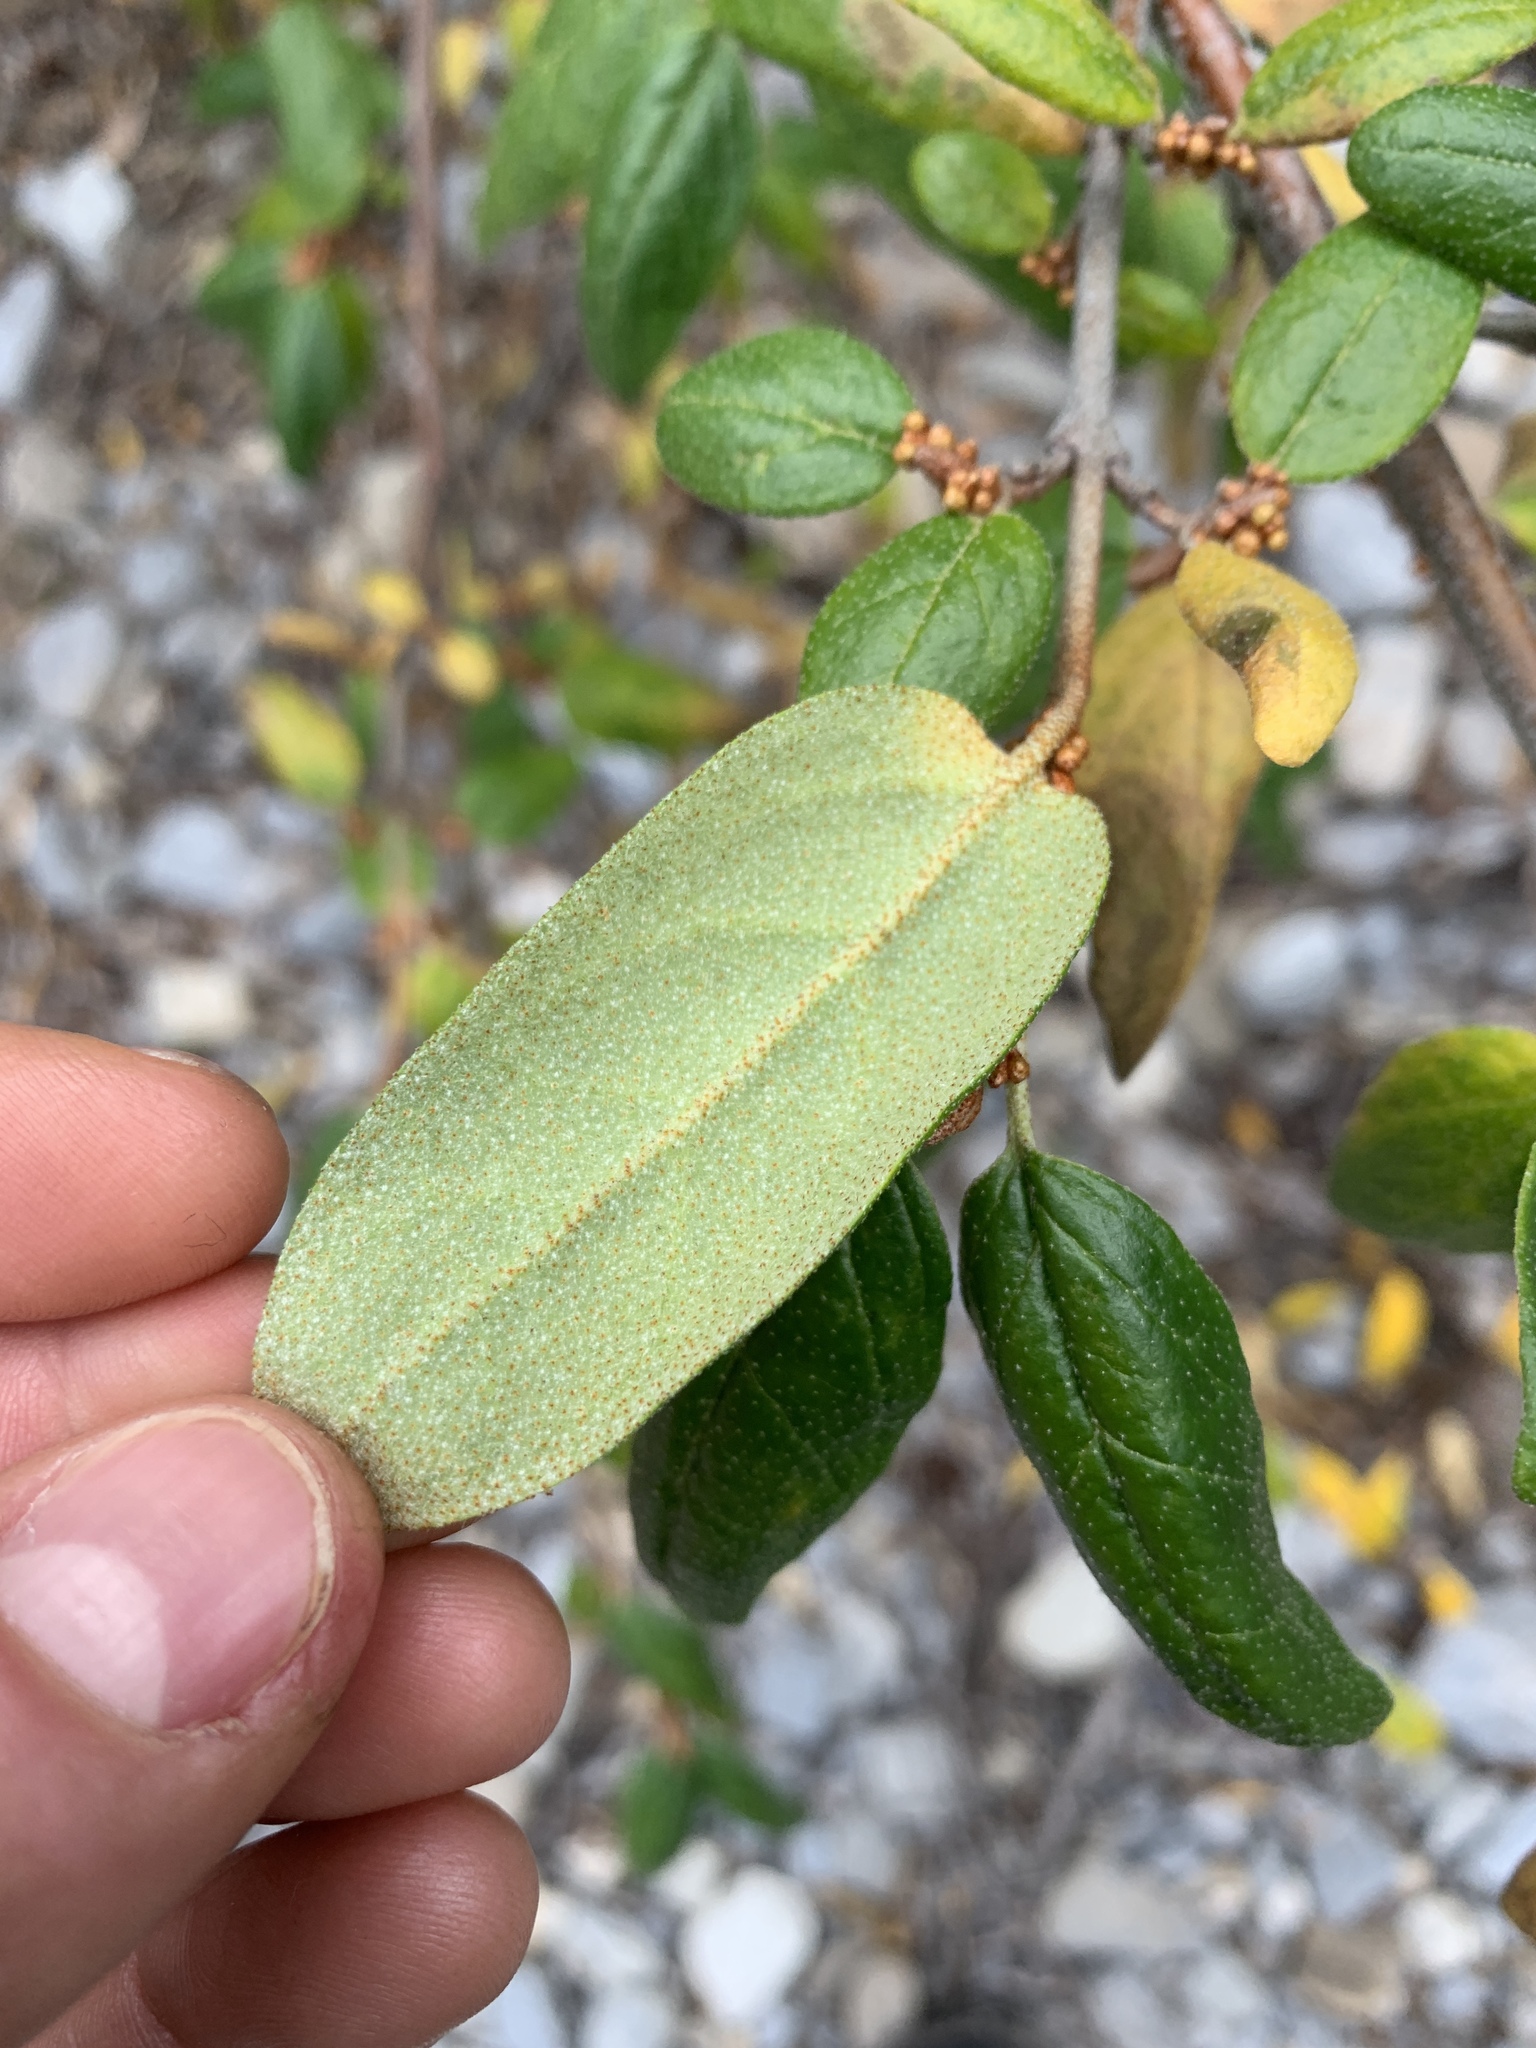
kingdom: Plantae
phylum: Tracheophyta
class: Magnoliopsida
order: Rosales
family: Elaeagnaceae
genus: Shepherdia
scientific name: Shepherdia canadensis
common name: Soapberry
